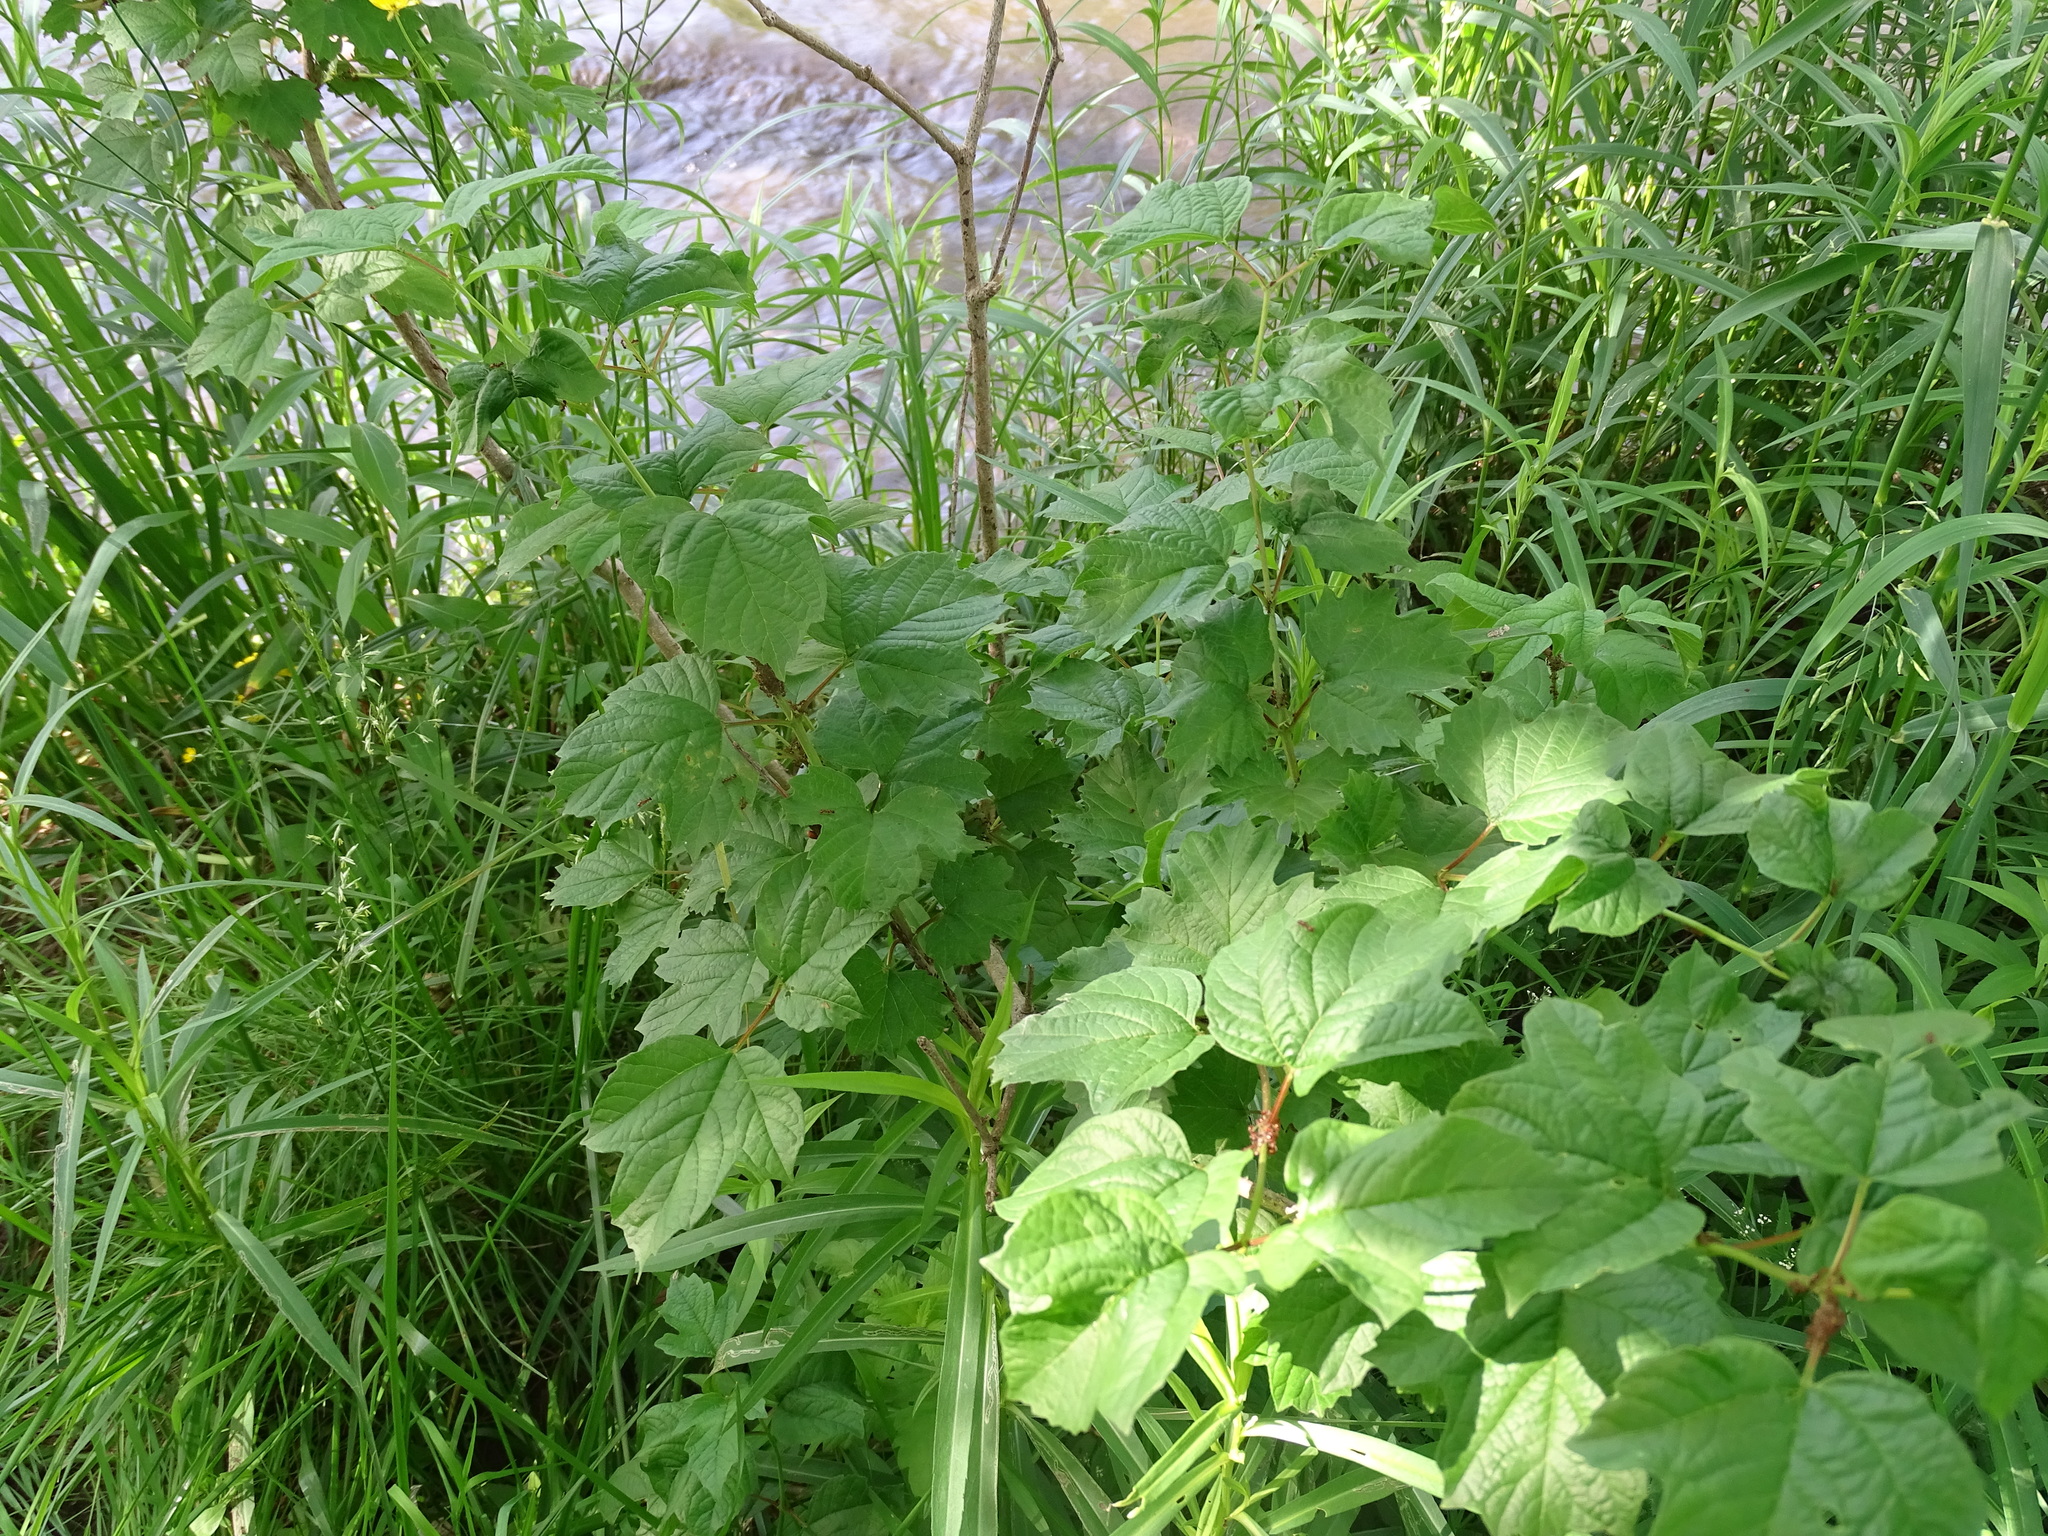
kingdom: Plantae
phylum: Tracheophyta
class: Magnoliopsida
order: Dipsacales
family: Viburnaceae
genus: Viburnum
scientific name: Viburnum opulus
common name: Guelder-rose
